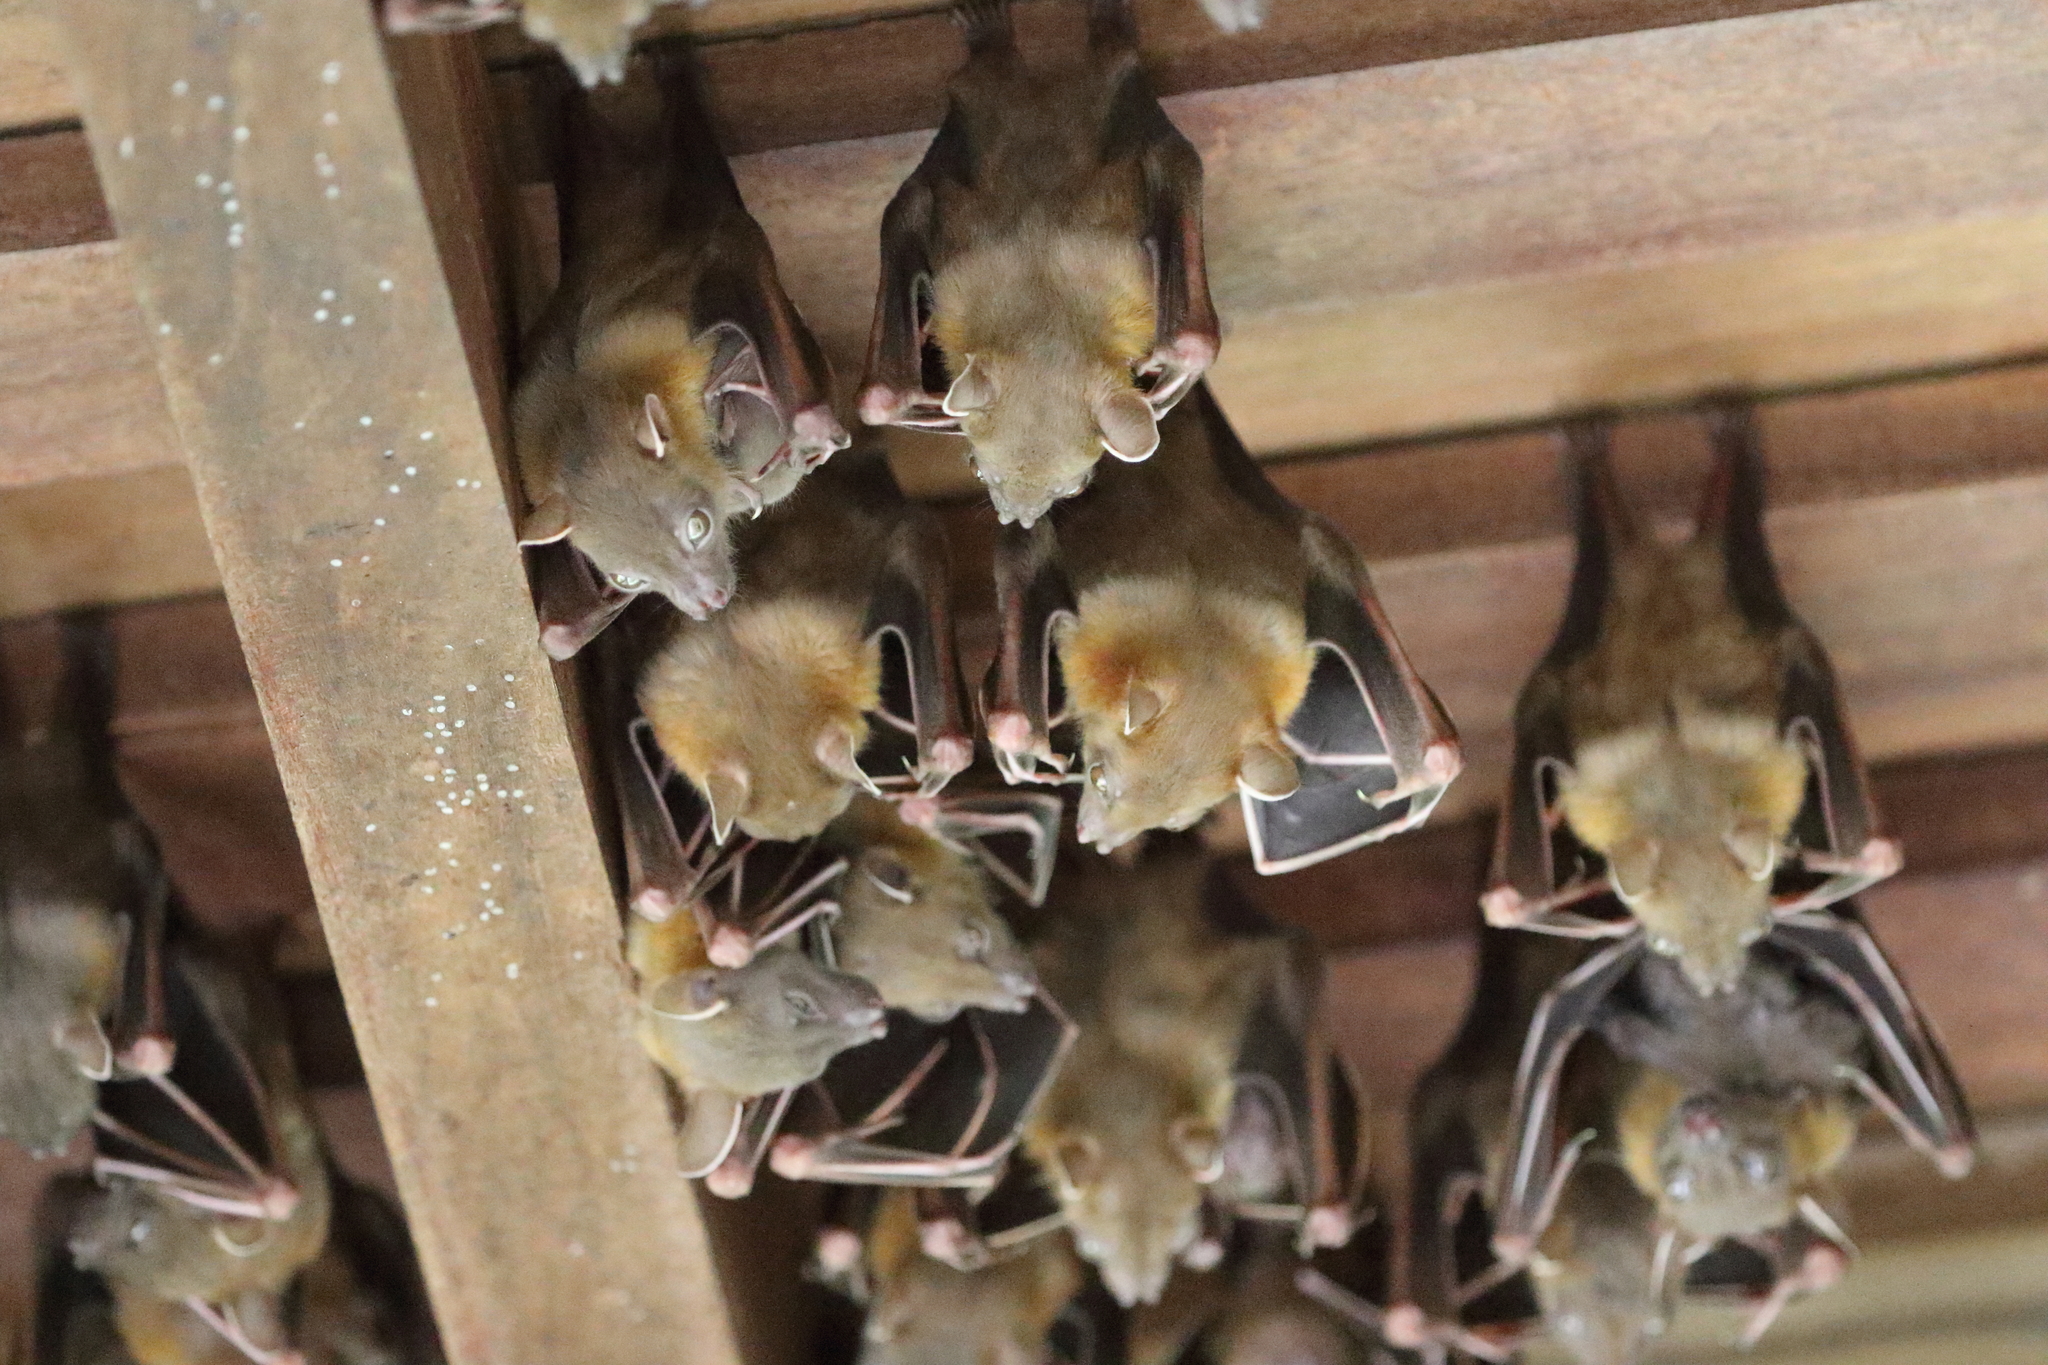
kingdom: Animalia
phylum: Chordata
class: Mammalia
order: Chiroptera
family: Pteropodidae
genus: Cynopterus
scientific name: Cynopterus brachyotis
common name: Lesser short-nosed fruit bat
